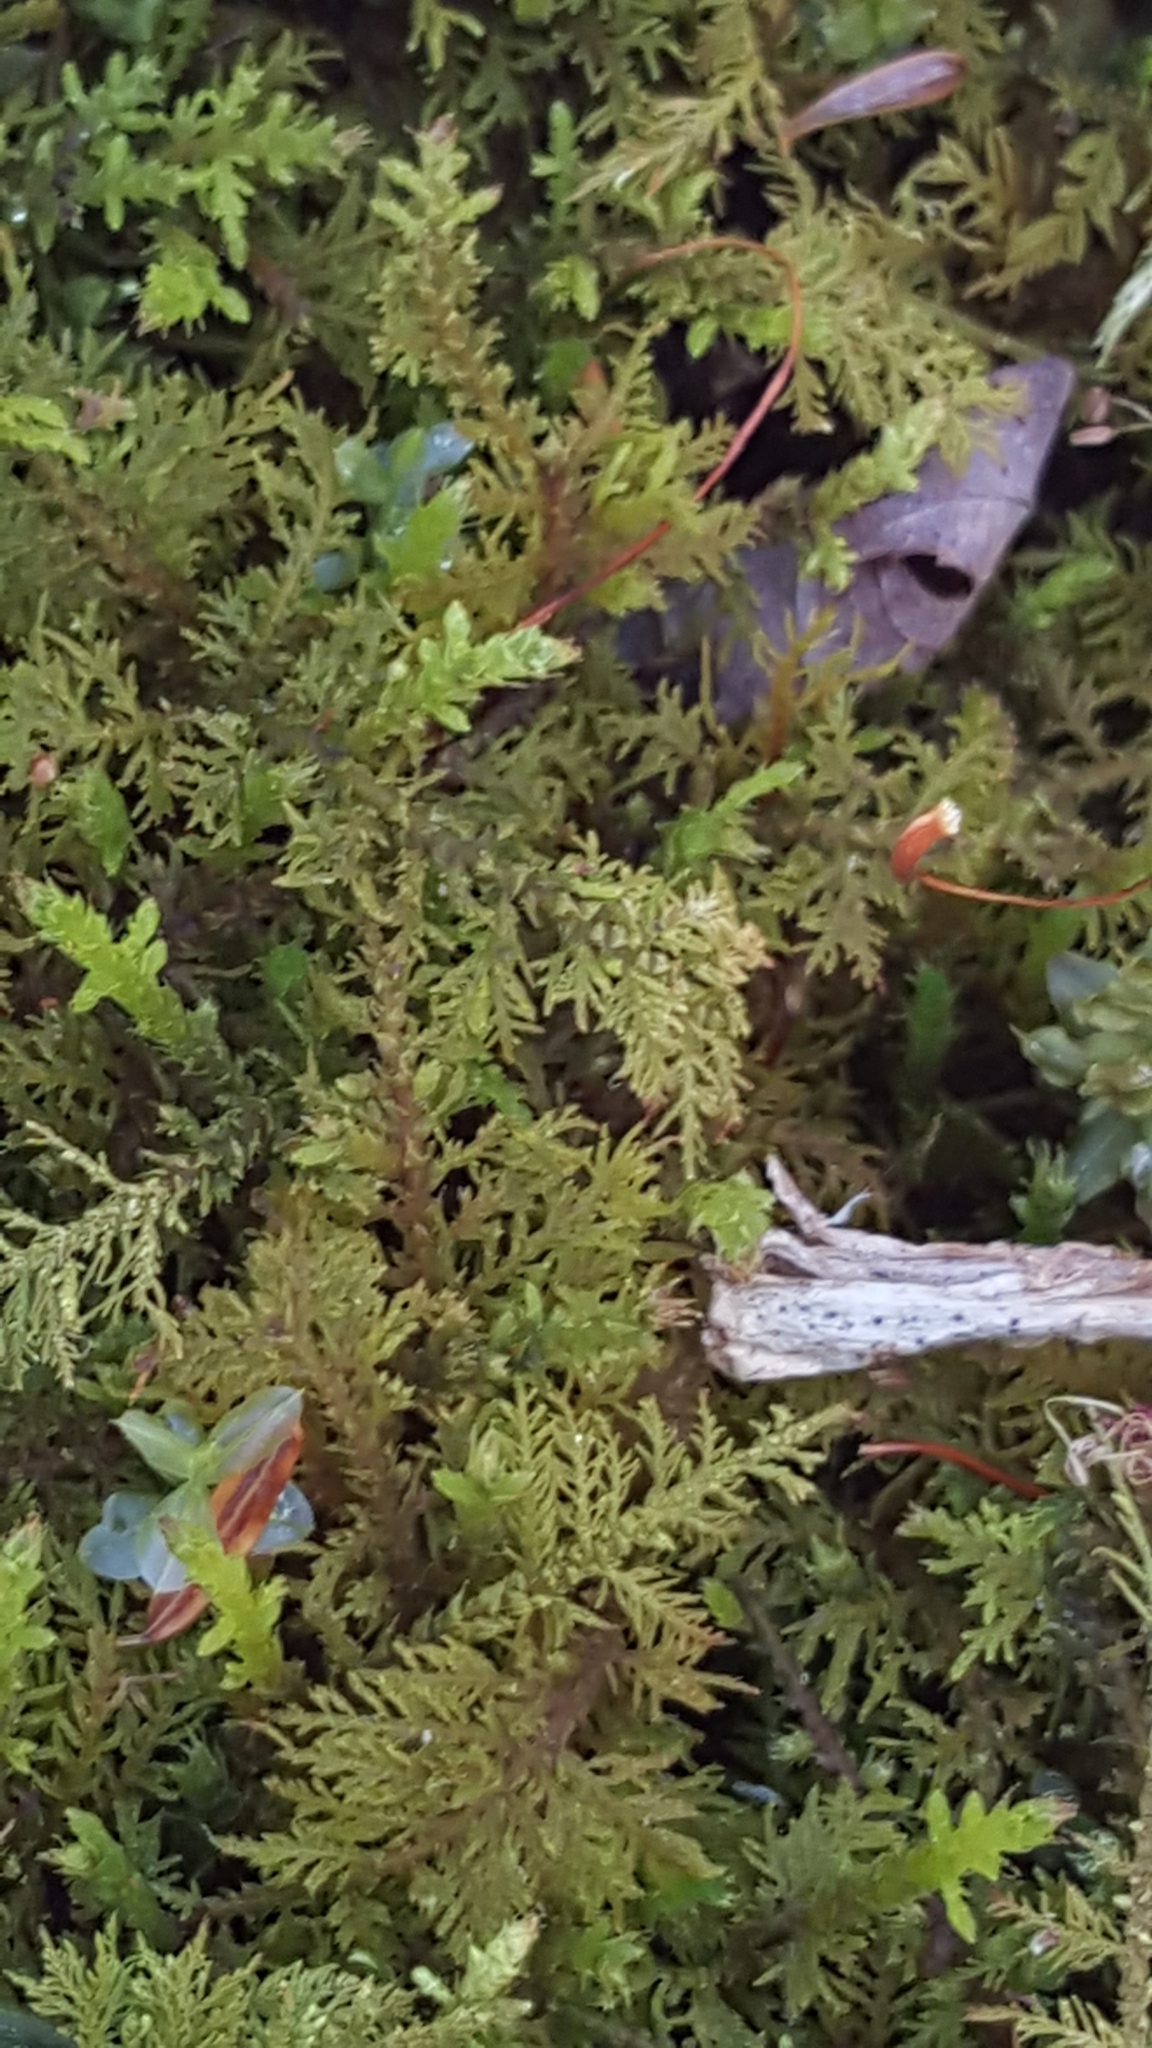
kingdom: Plantae
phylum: Bryophyta
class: Bryopsida
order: Hypnales
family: Hylocomiaceae
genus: Hylocomium
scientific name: Hylocomium splendens
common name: Stairstep moss
